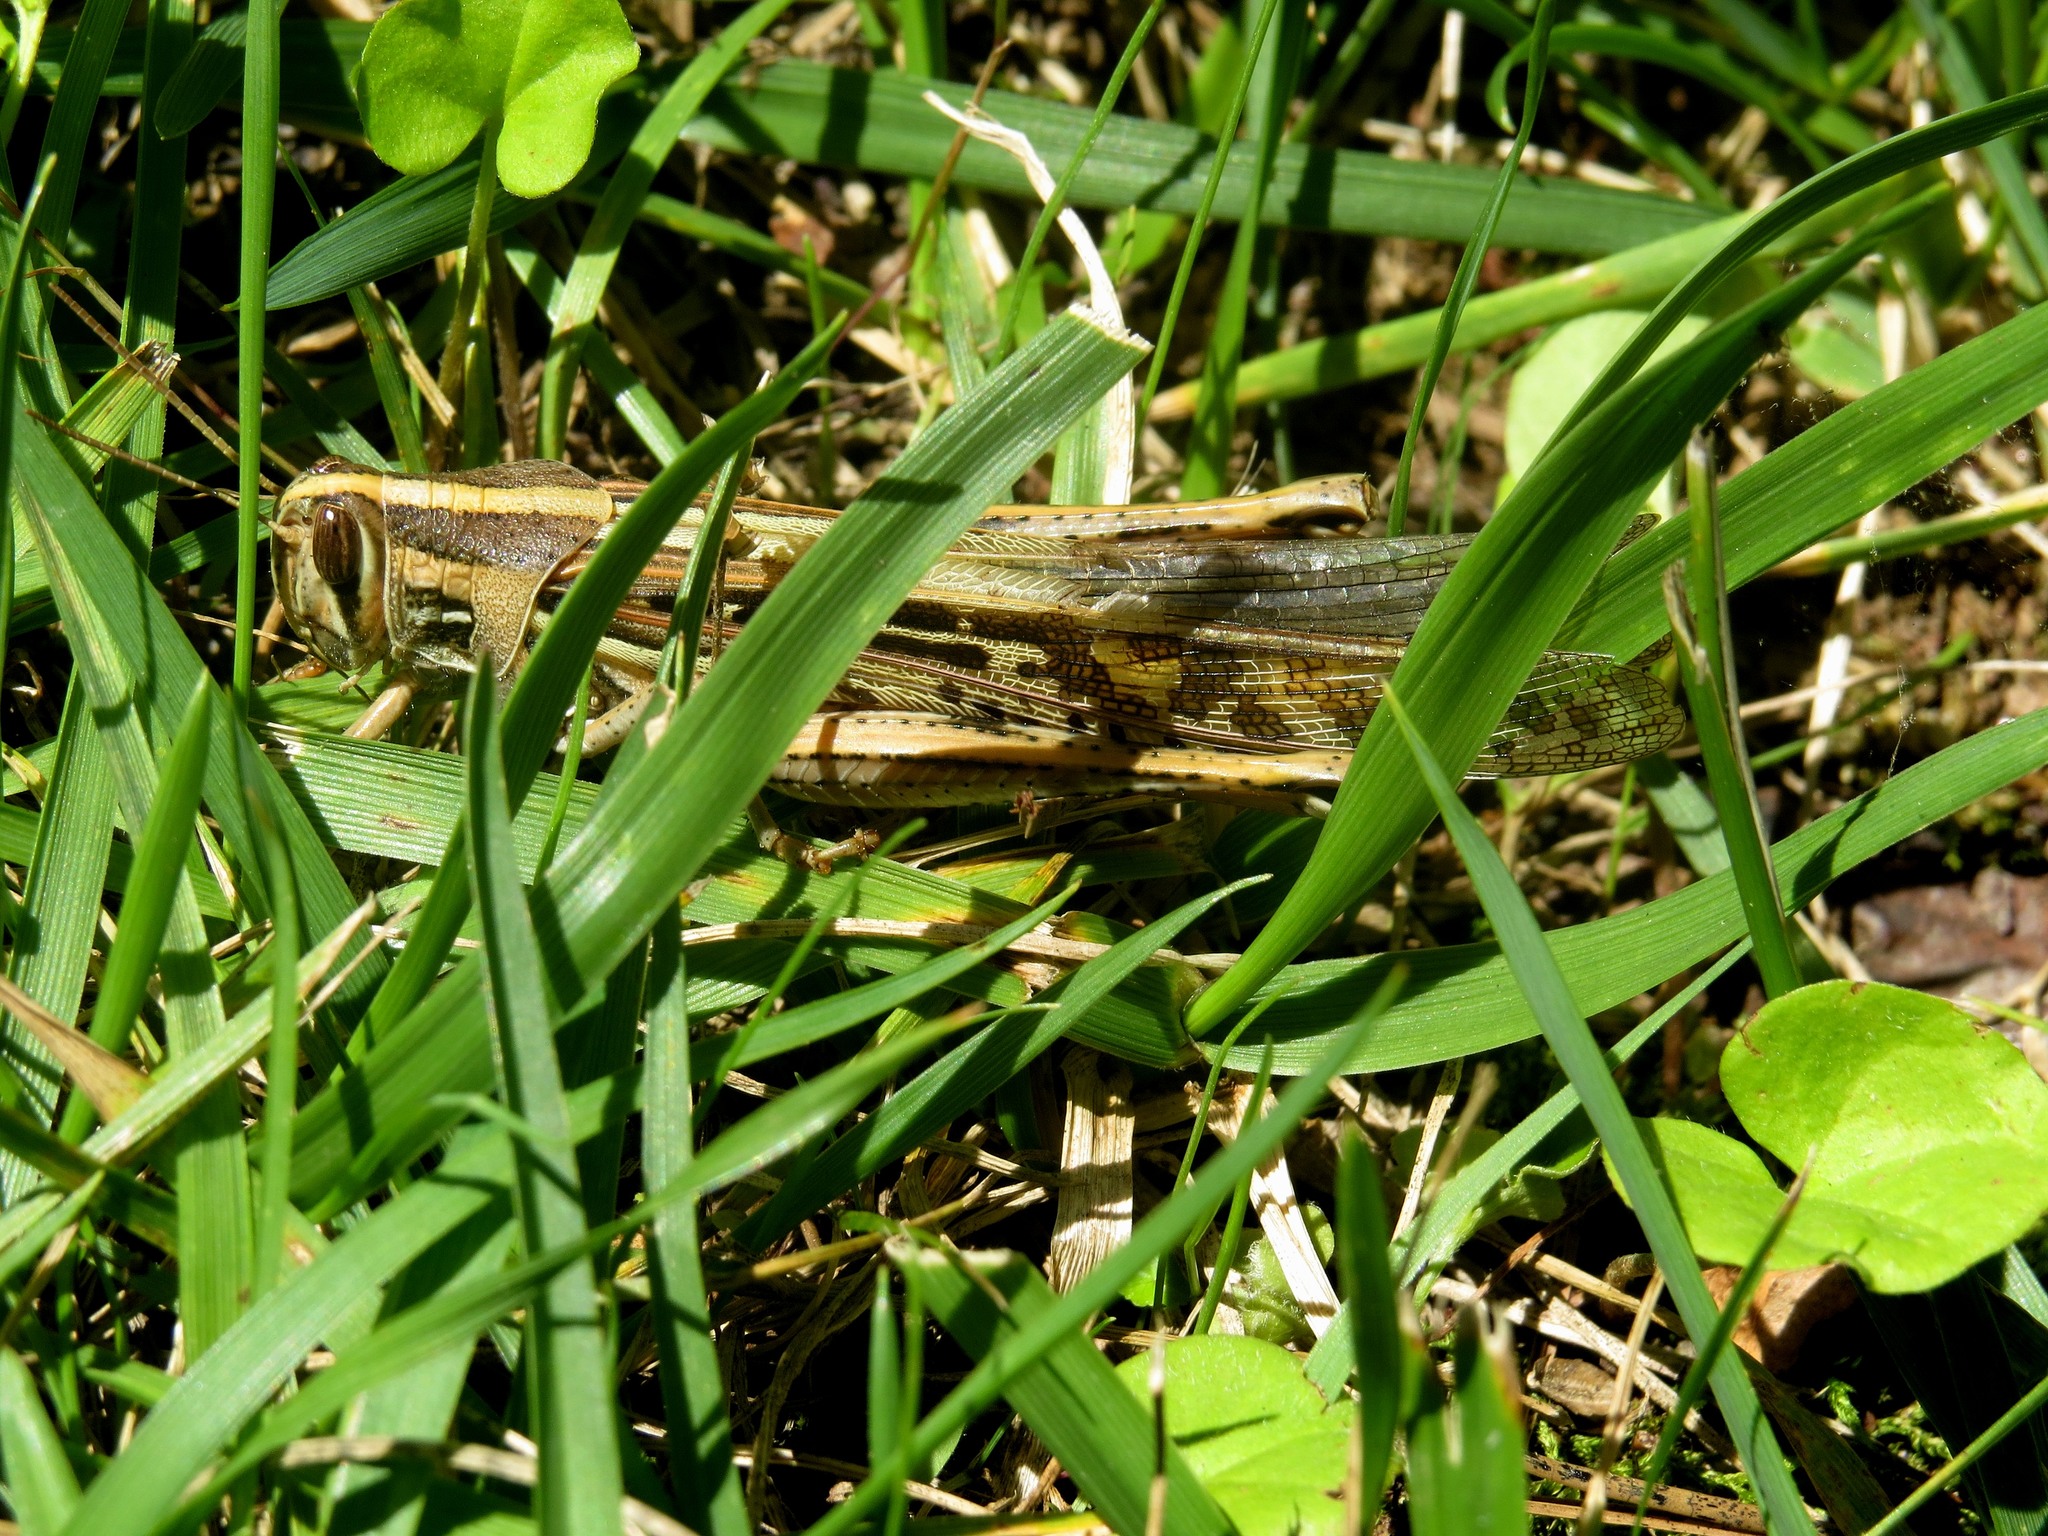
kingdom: Animalia
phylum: Arthropoda
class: Insecta
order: Orthoptera
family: Acrididae
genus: Schistocerca
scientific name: Schistocerca americana
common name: American bird locust
